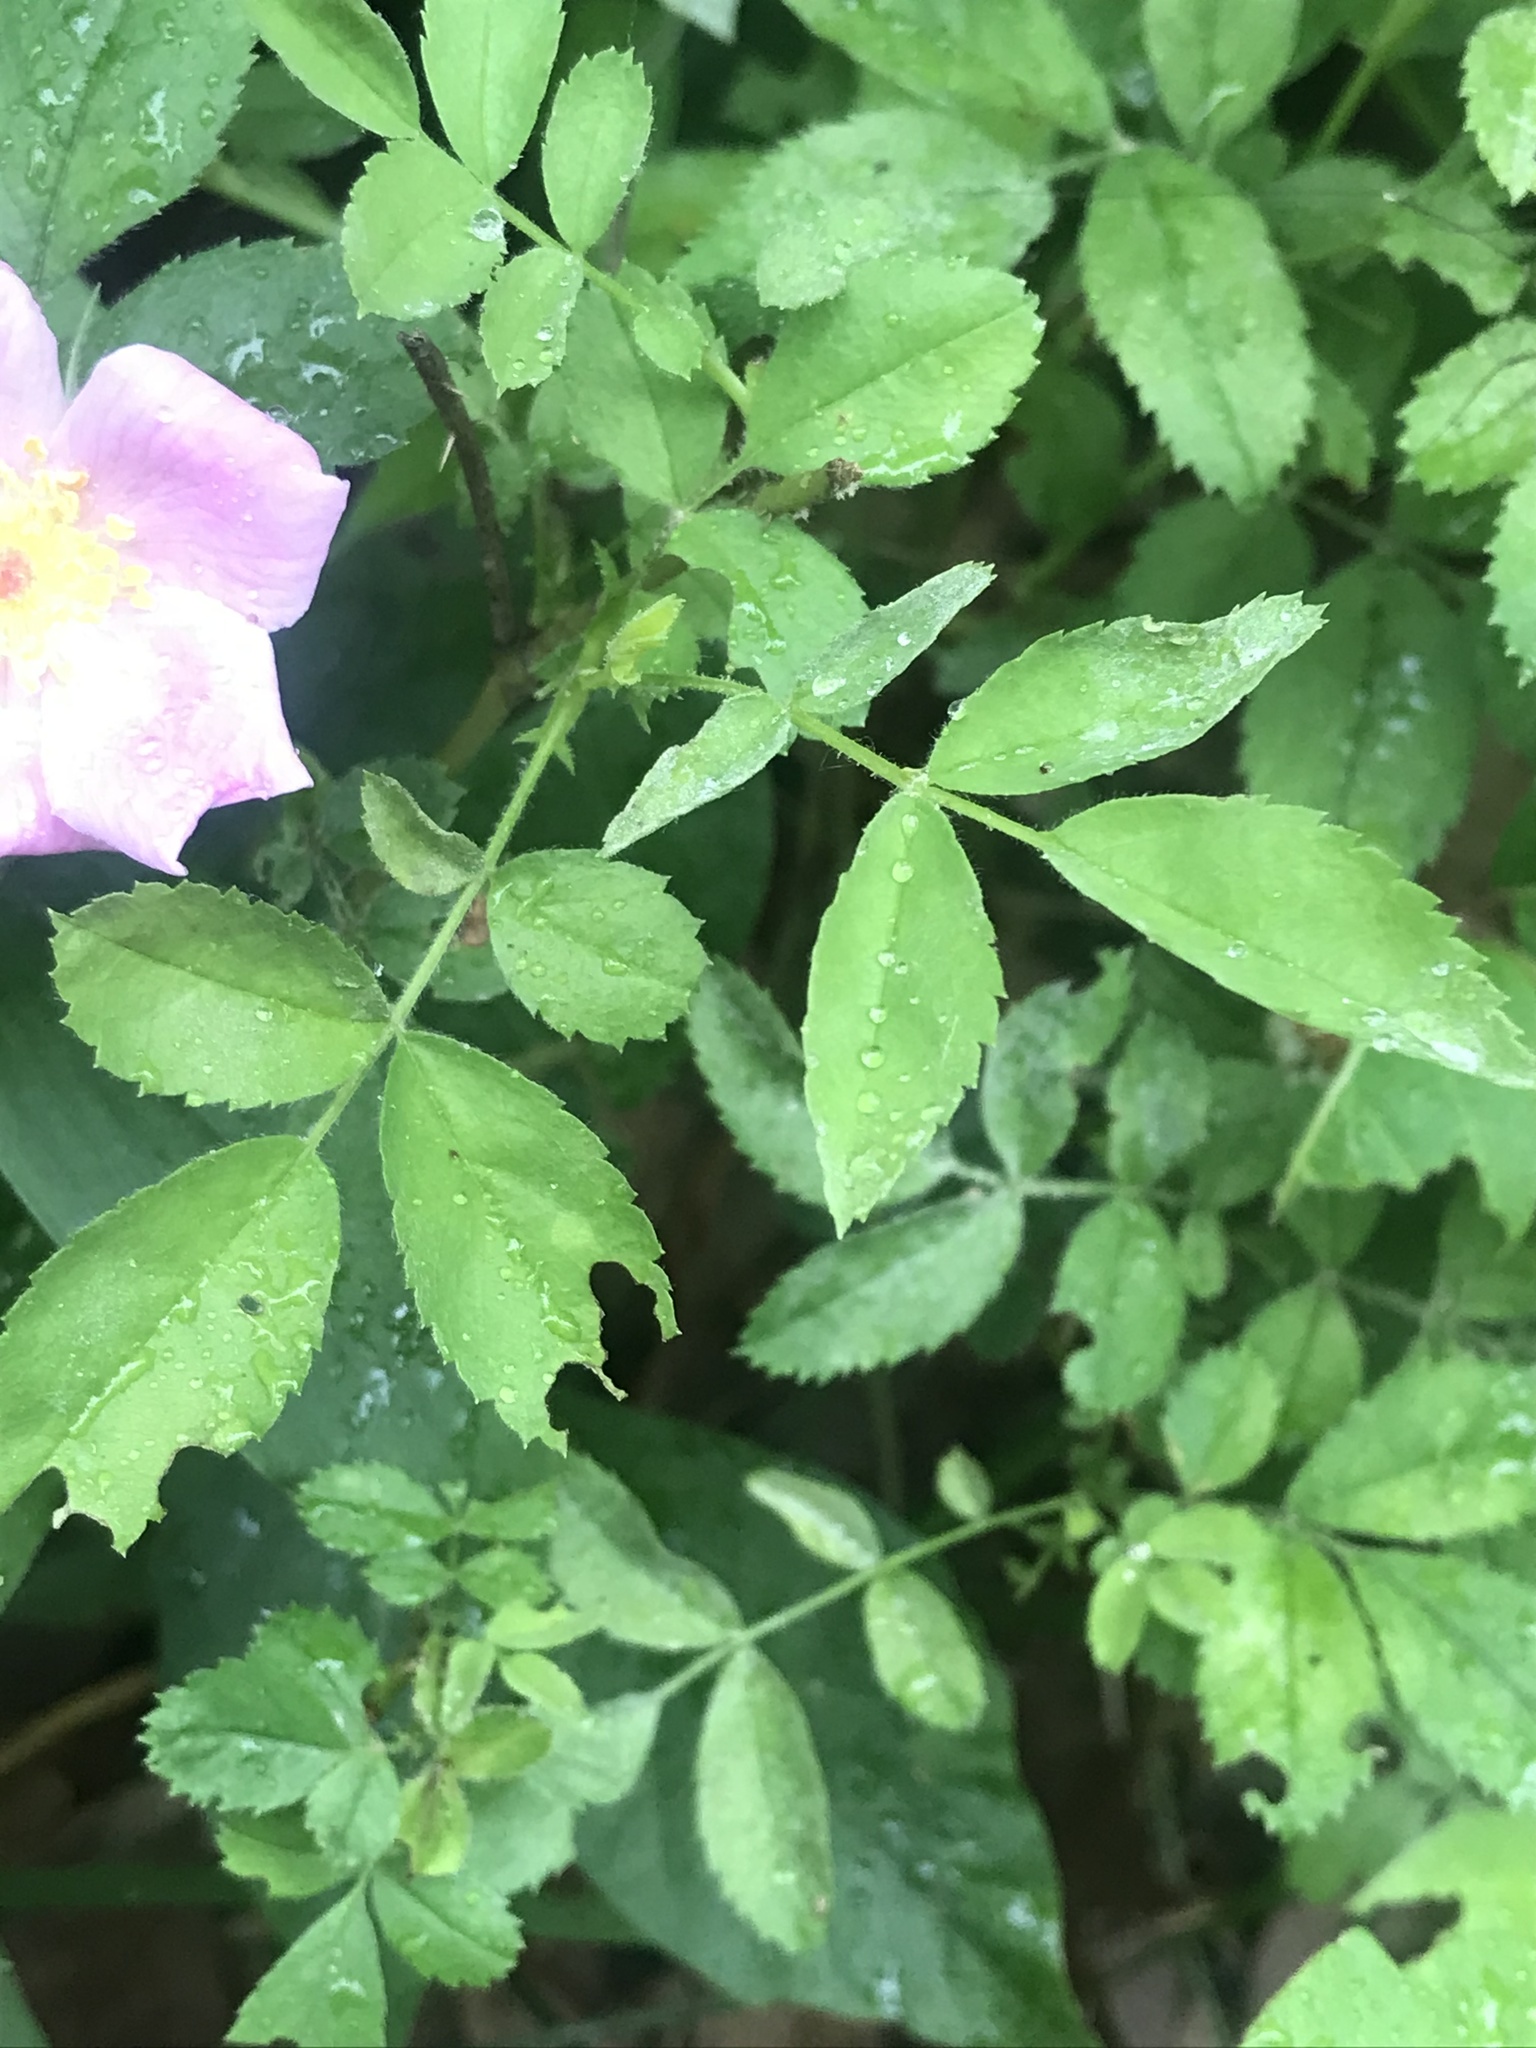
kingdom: Plantae
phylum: Tracheophyta
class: Magnoliopsida
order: Rosales
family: Rosaceae
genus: Rosa
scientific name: Rosa carolina
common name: Pasture rose
